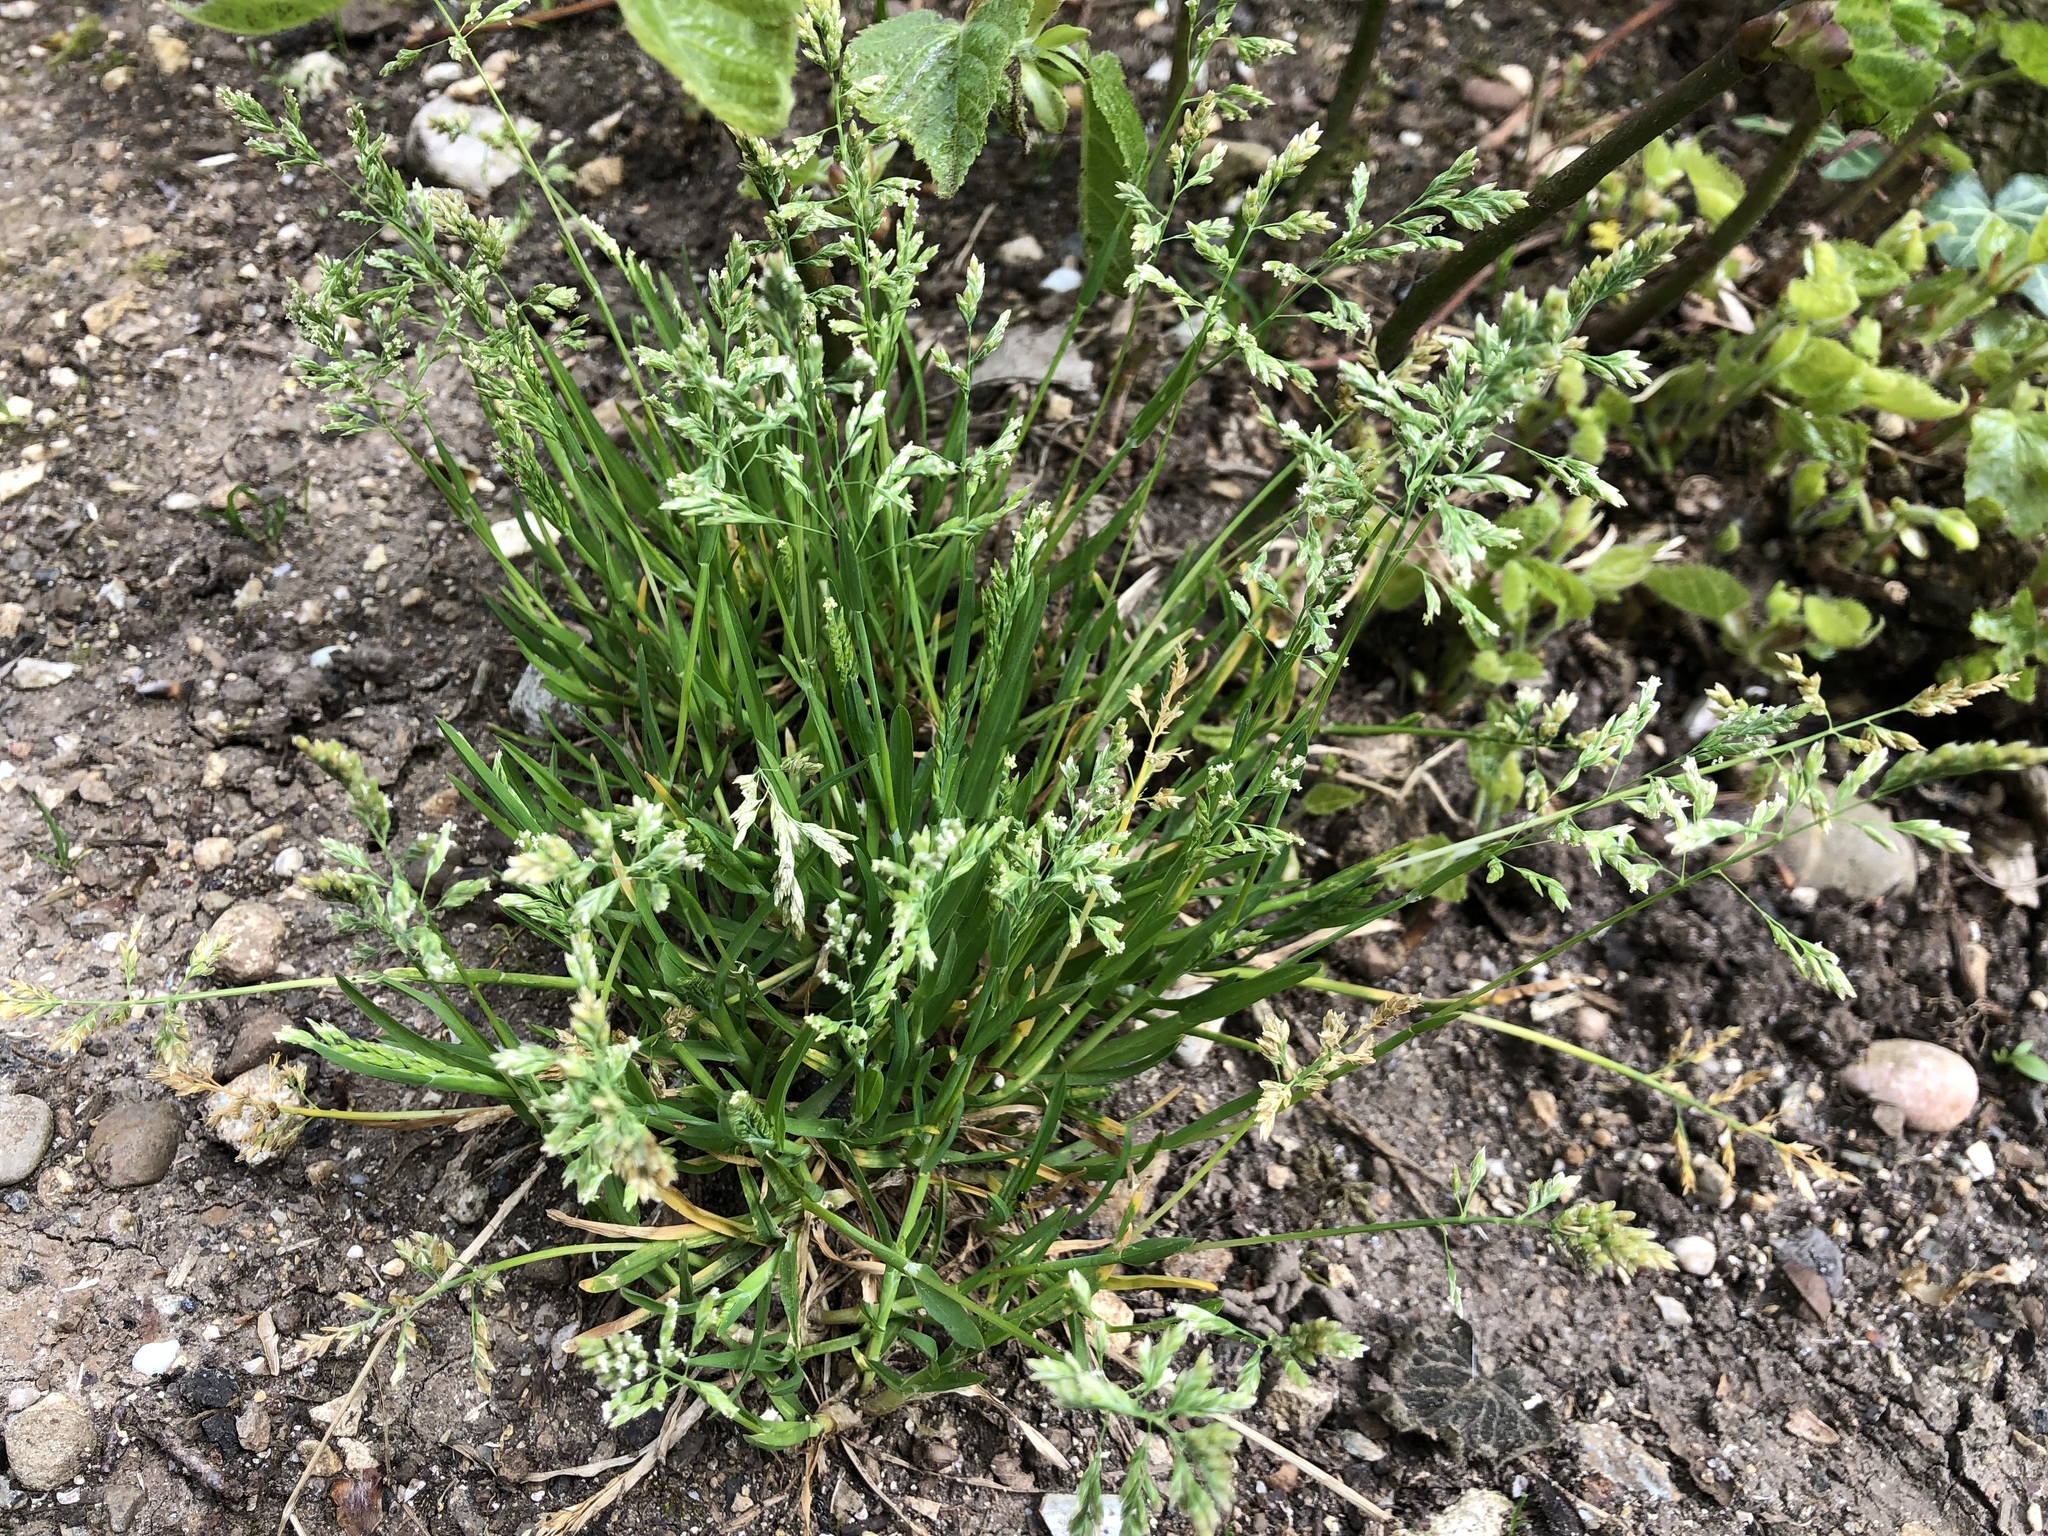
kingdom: Plantae
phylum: Tracheophyta
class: Liliopsida
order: Poales
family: Poaceae
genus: Poa
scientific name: Poa annua
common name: Annual bluegrass
